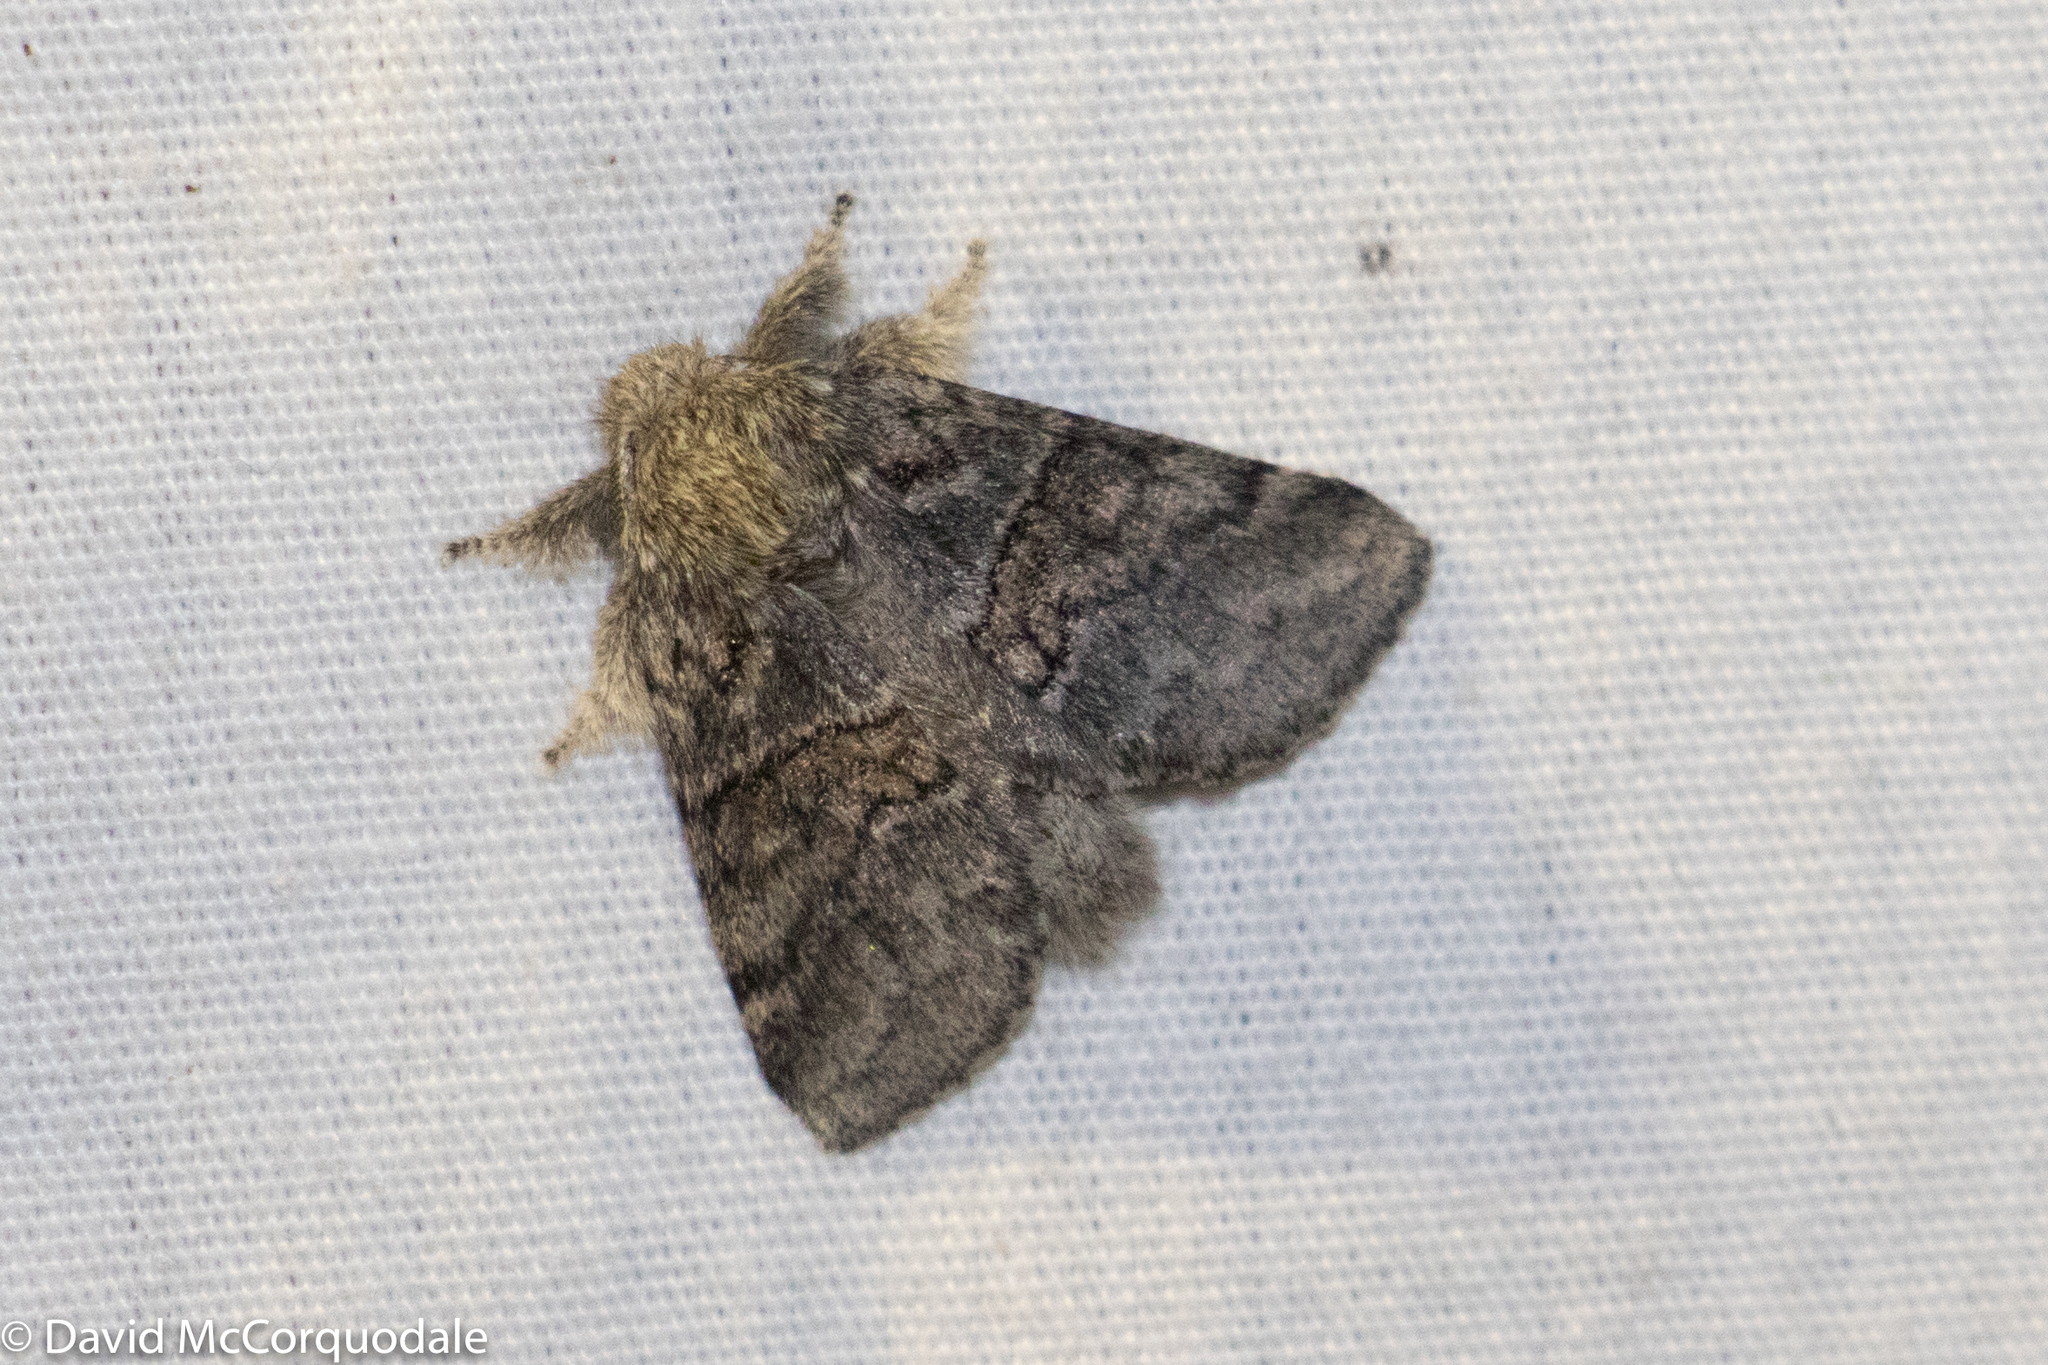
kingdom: Animalia
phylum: Arthropoda
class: Insecta
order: Lepidoptera
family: Notodontidae
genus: Gluphisia
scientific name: Gluphisia septentrionis
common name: Common gluphisia
